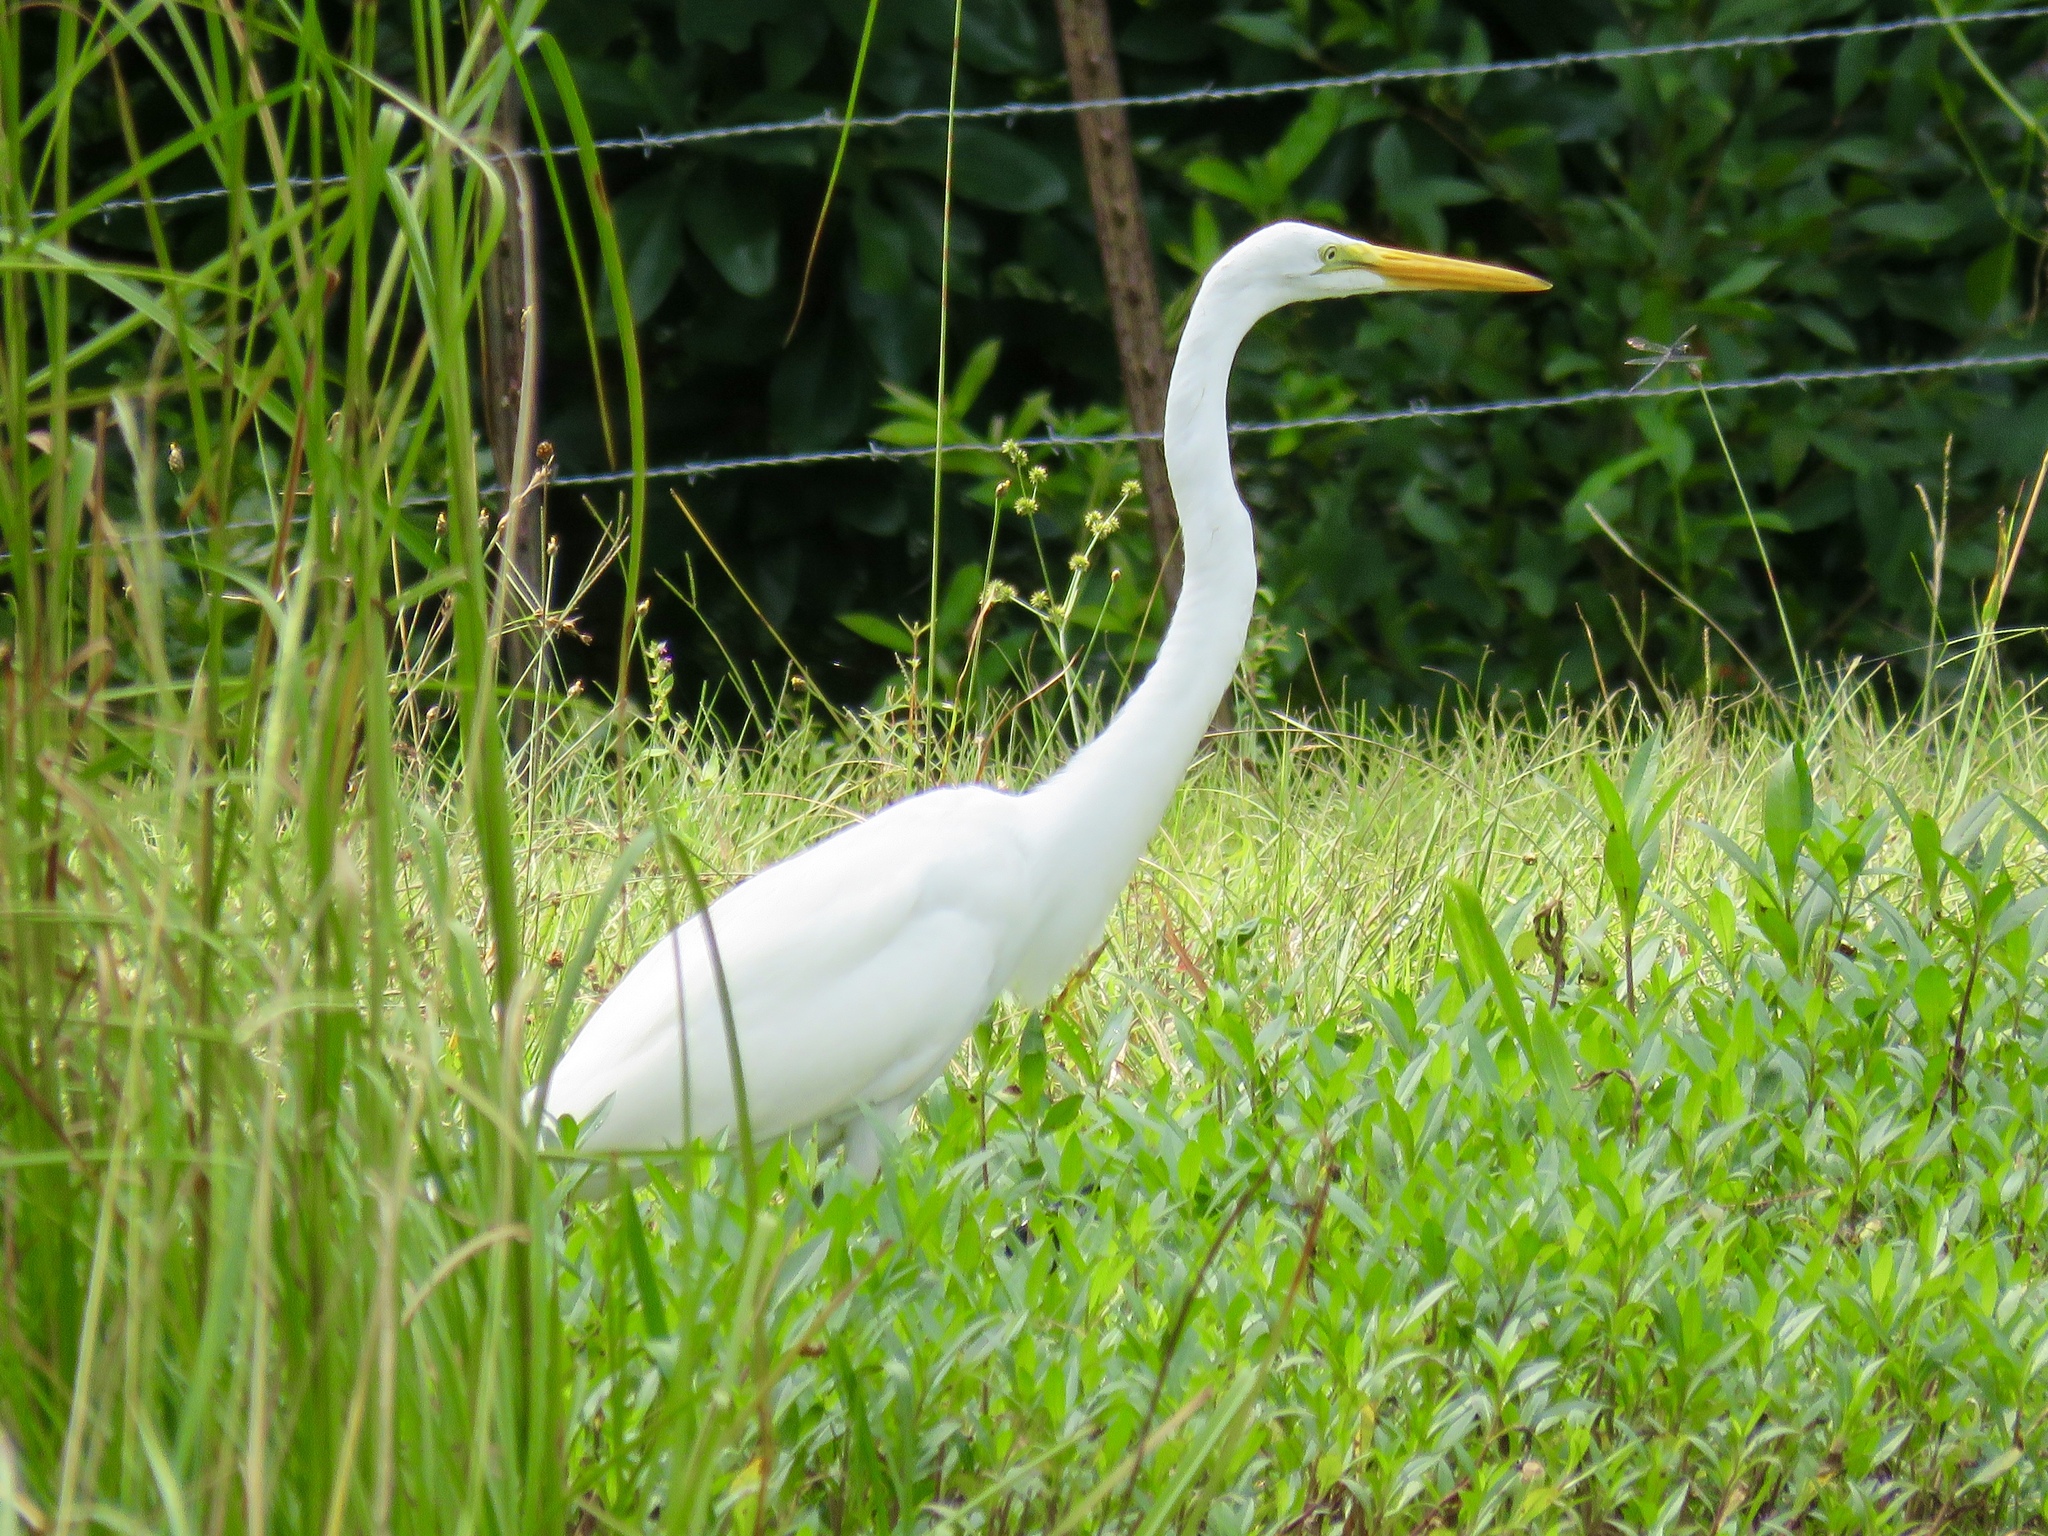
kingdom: Animalia
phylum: Chordata
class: Aves
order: Pelecaniformes
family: Ardeidae
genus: Ardea
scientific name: Ardea alba
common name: Great egret
